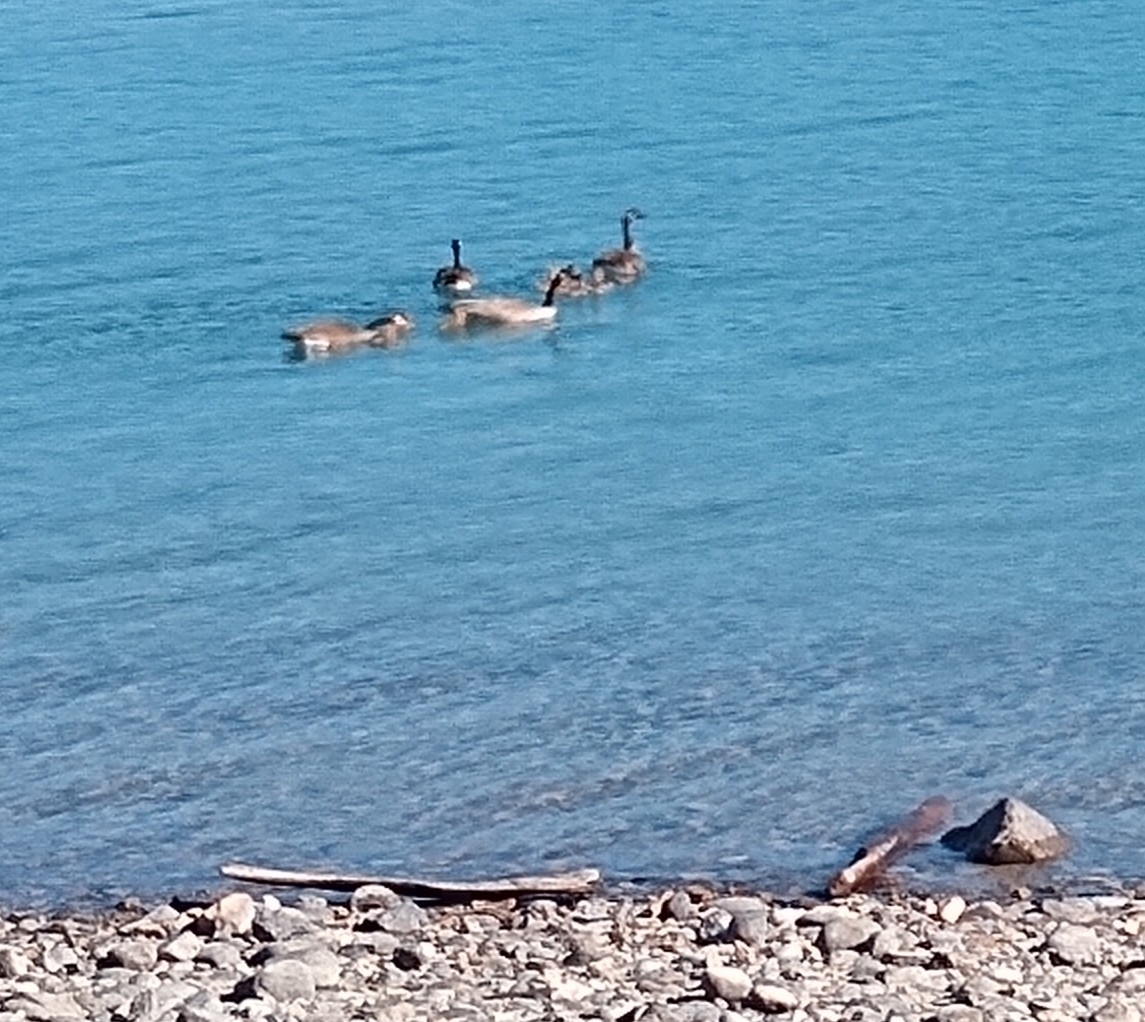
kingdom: Animalia
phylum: Chordata
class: Aves
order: Anseriformes
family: Anatidae
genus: Branta
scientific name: Branta canadensis
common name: Canada goose
